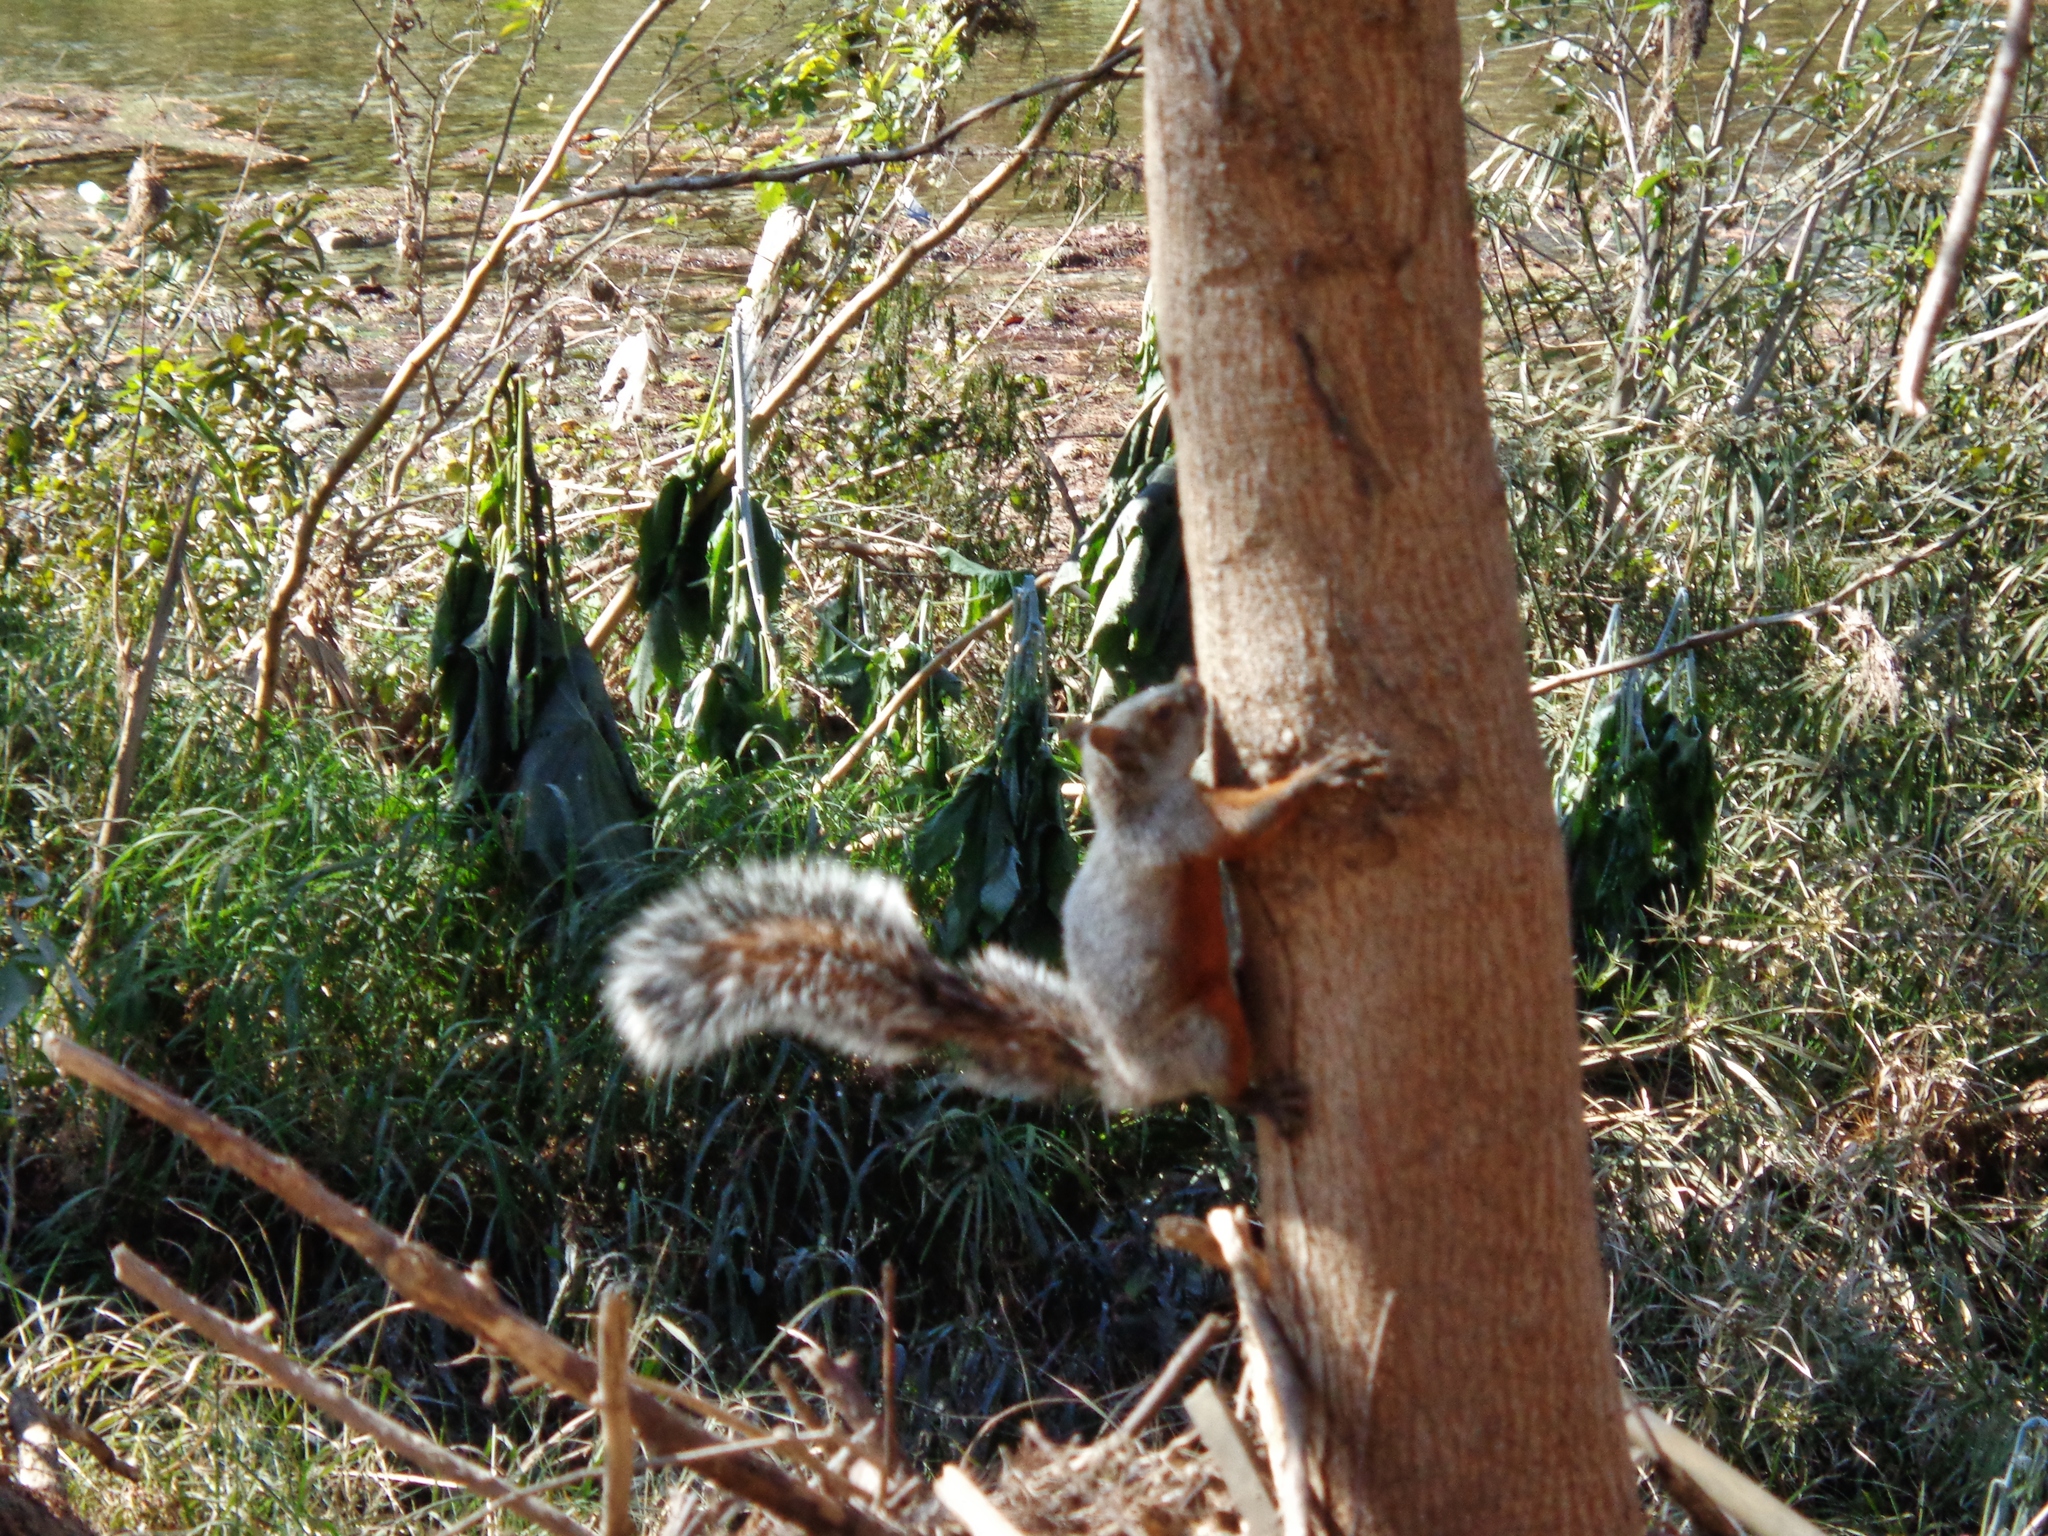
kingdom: Animalia
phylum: Chordata
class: Mammalia
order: Rodentia
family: Sciuridae
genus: Sciurus
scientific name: Sciurus aureogaster
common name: Red-bellied squirrel
